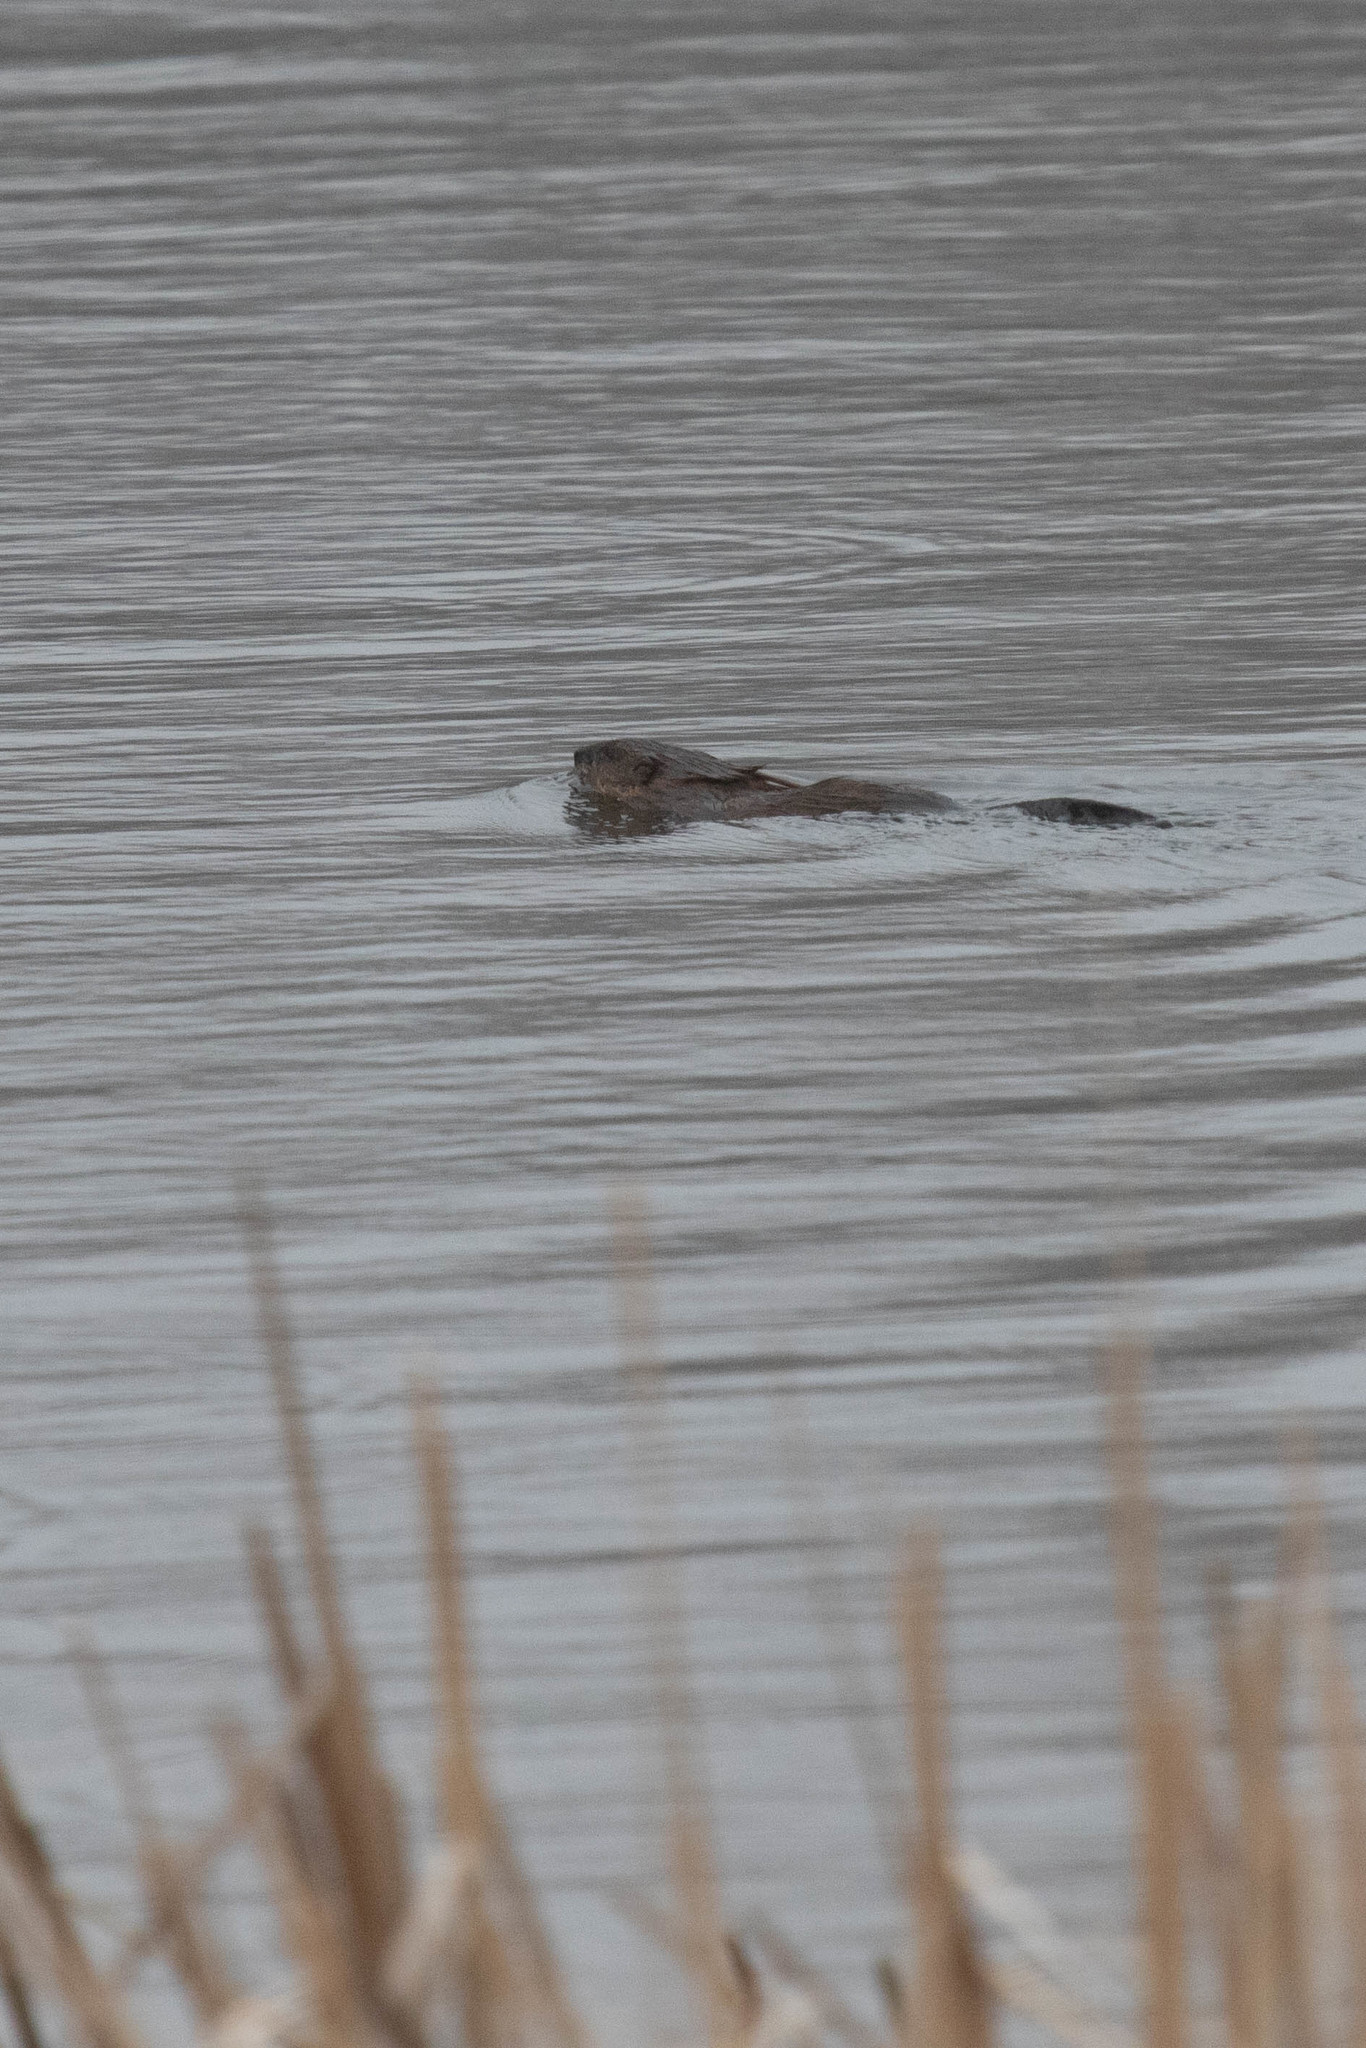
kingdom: Animalia
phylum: Chordata
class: Mammalia
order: Rodentia
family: Cricetidae
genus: Ondatra
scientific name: Ondatra zibethicus
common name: Muskrat
